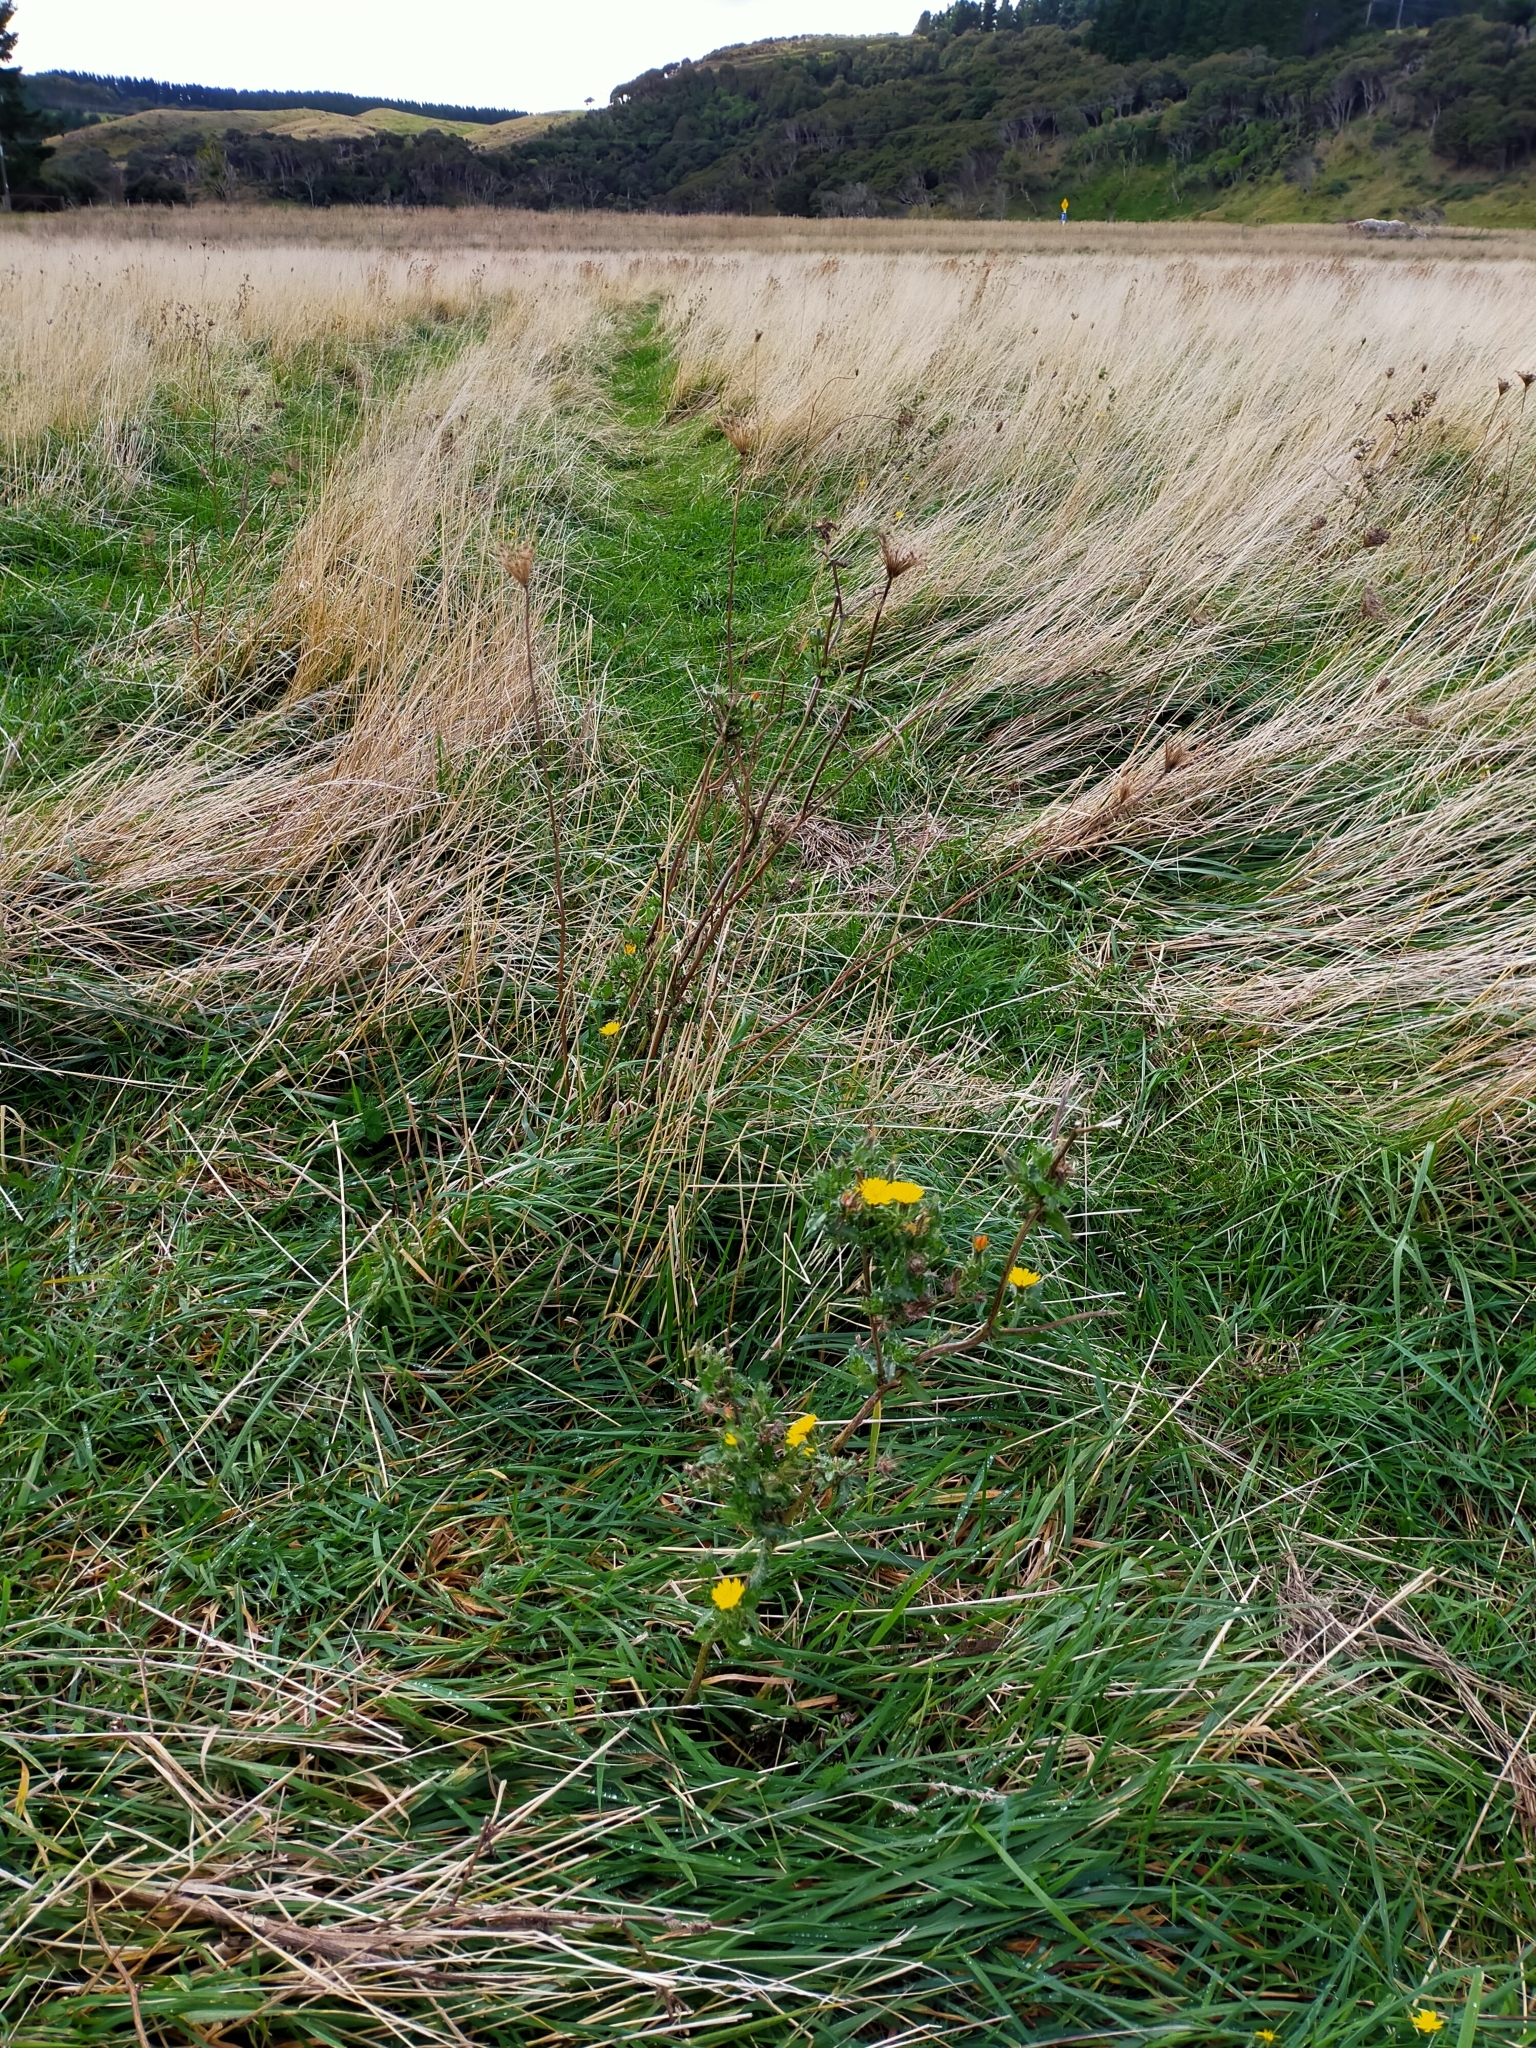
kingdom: Plantae
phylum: Tracheophyta
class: Magnoliopsida
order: Asterales
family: Asteraceae
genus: Helminthotheca
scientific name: Helminthotheca echioides
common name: Ox-tongue
